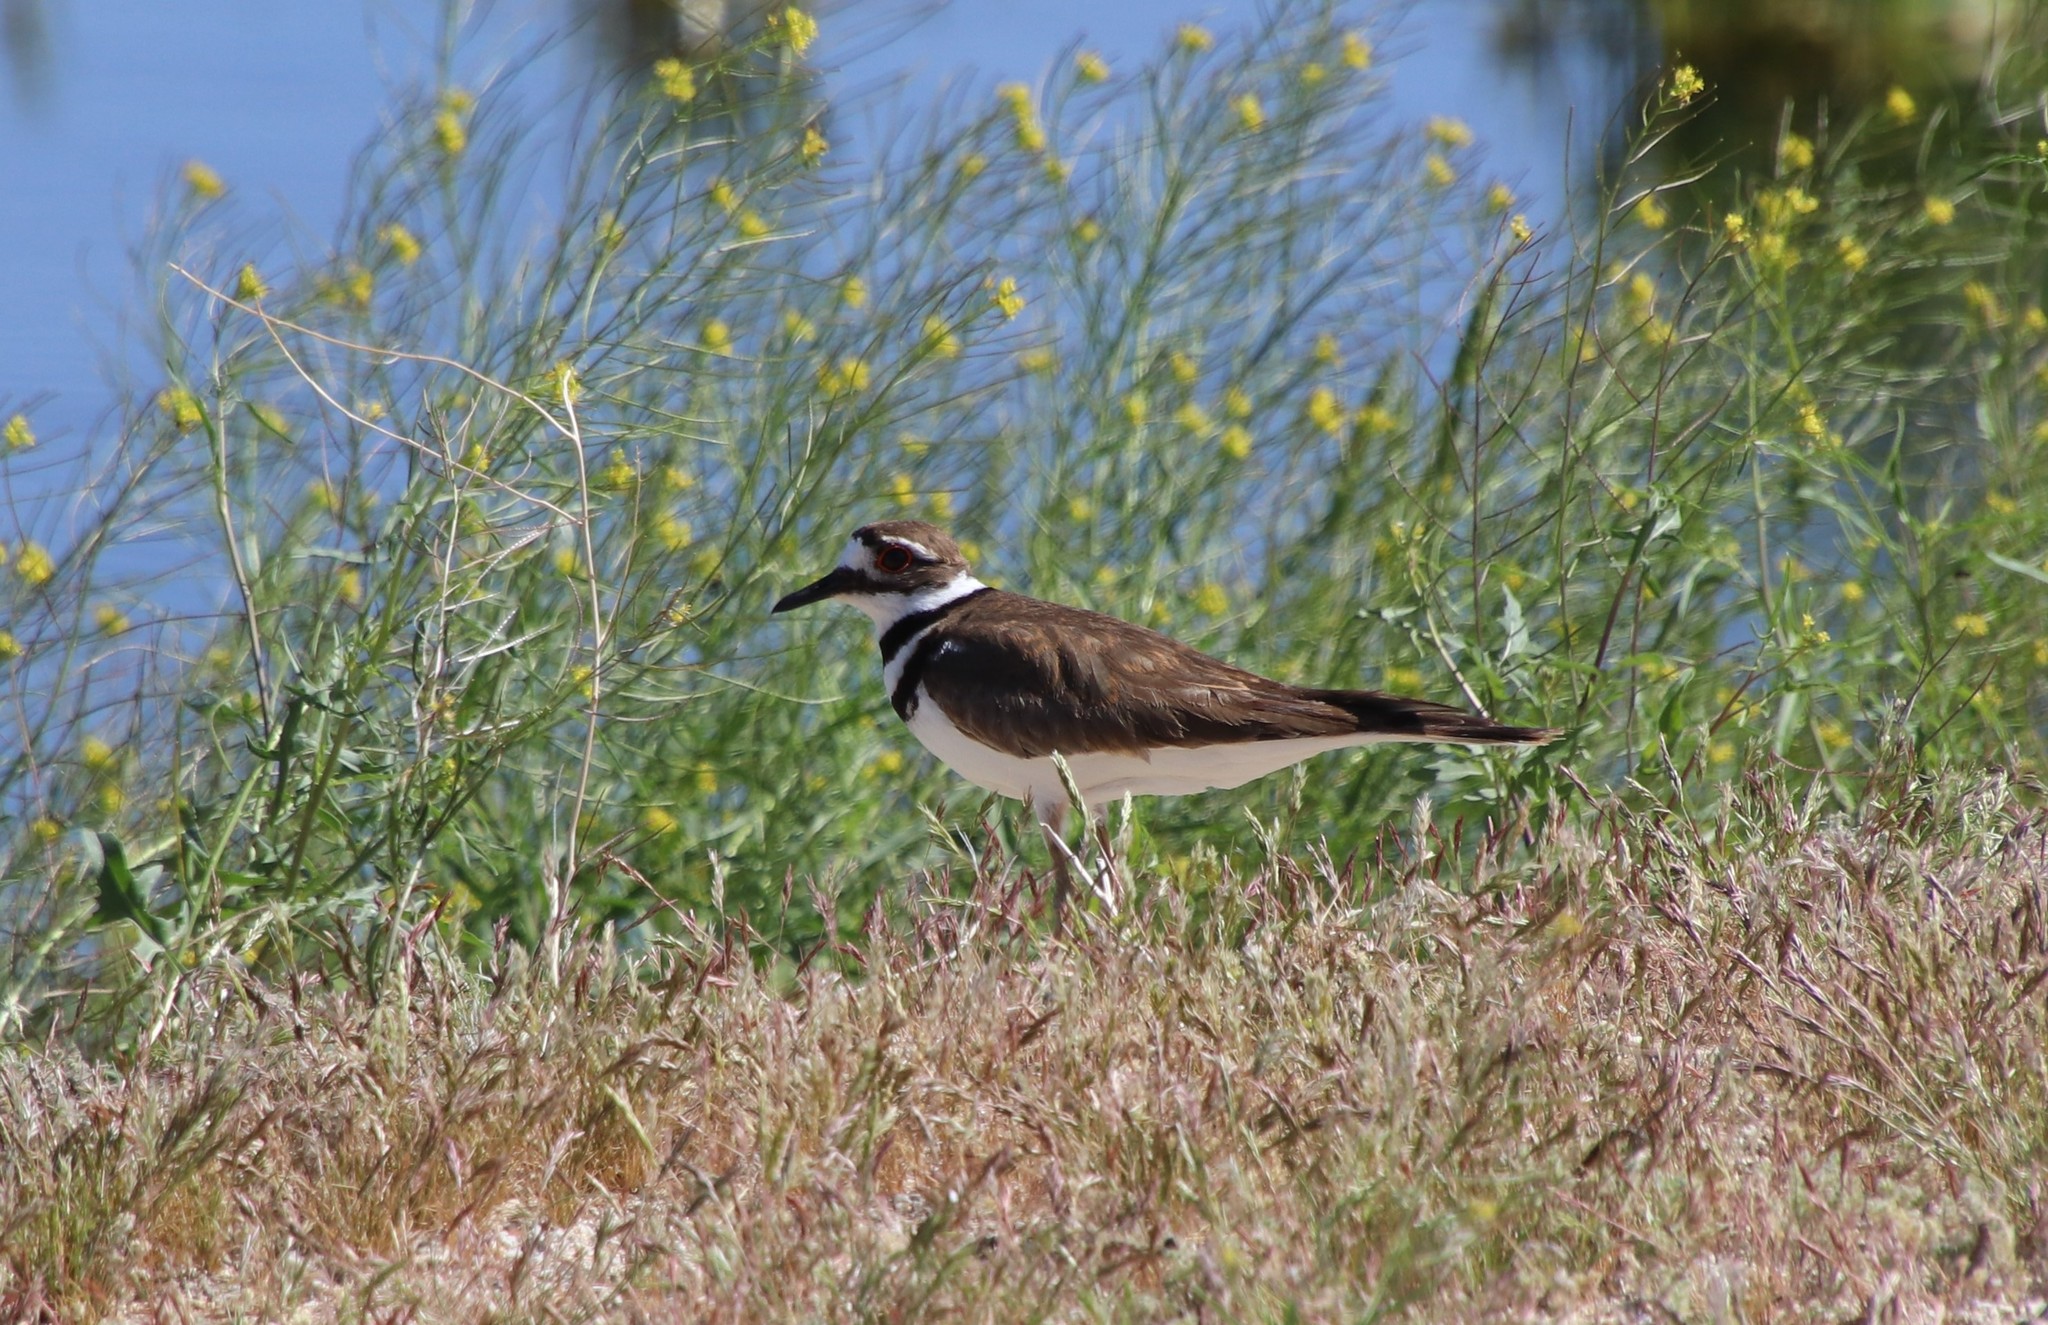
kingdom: Animalia
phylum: Chordata
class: Aves
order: Charadriiformes
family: Charadriidae
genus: Charadrius
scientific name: Charadrius vociferus
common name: Killdeer
